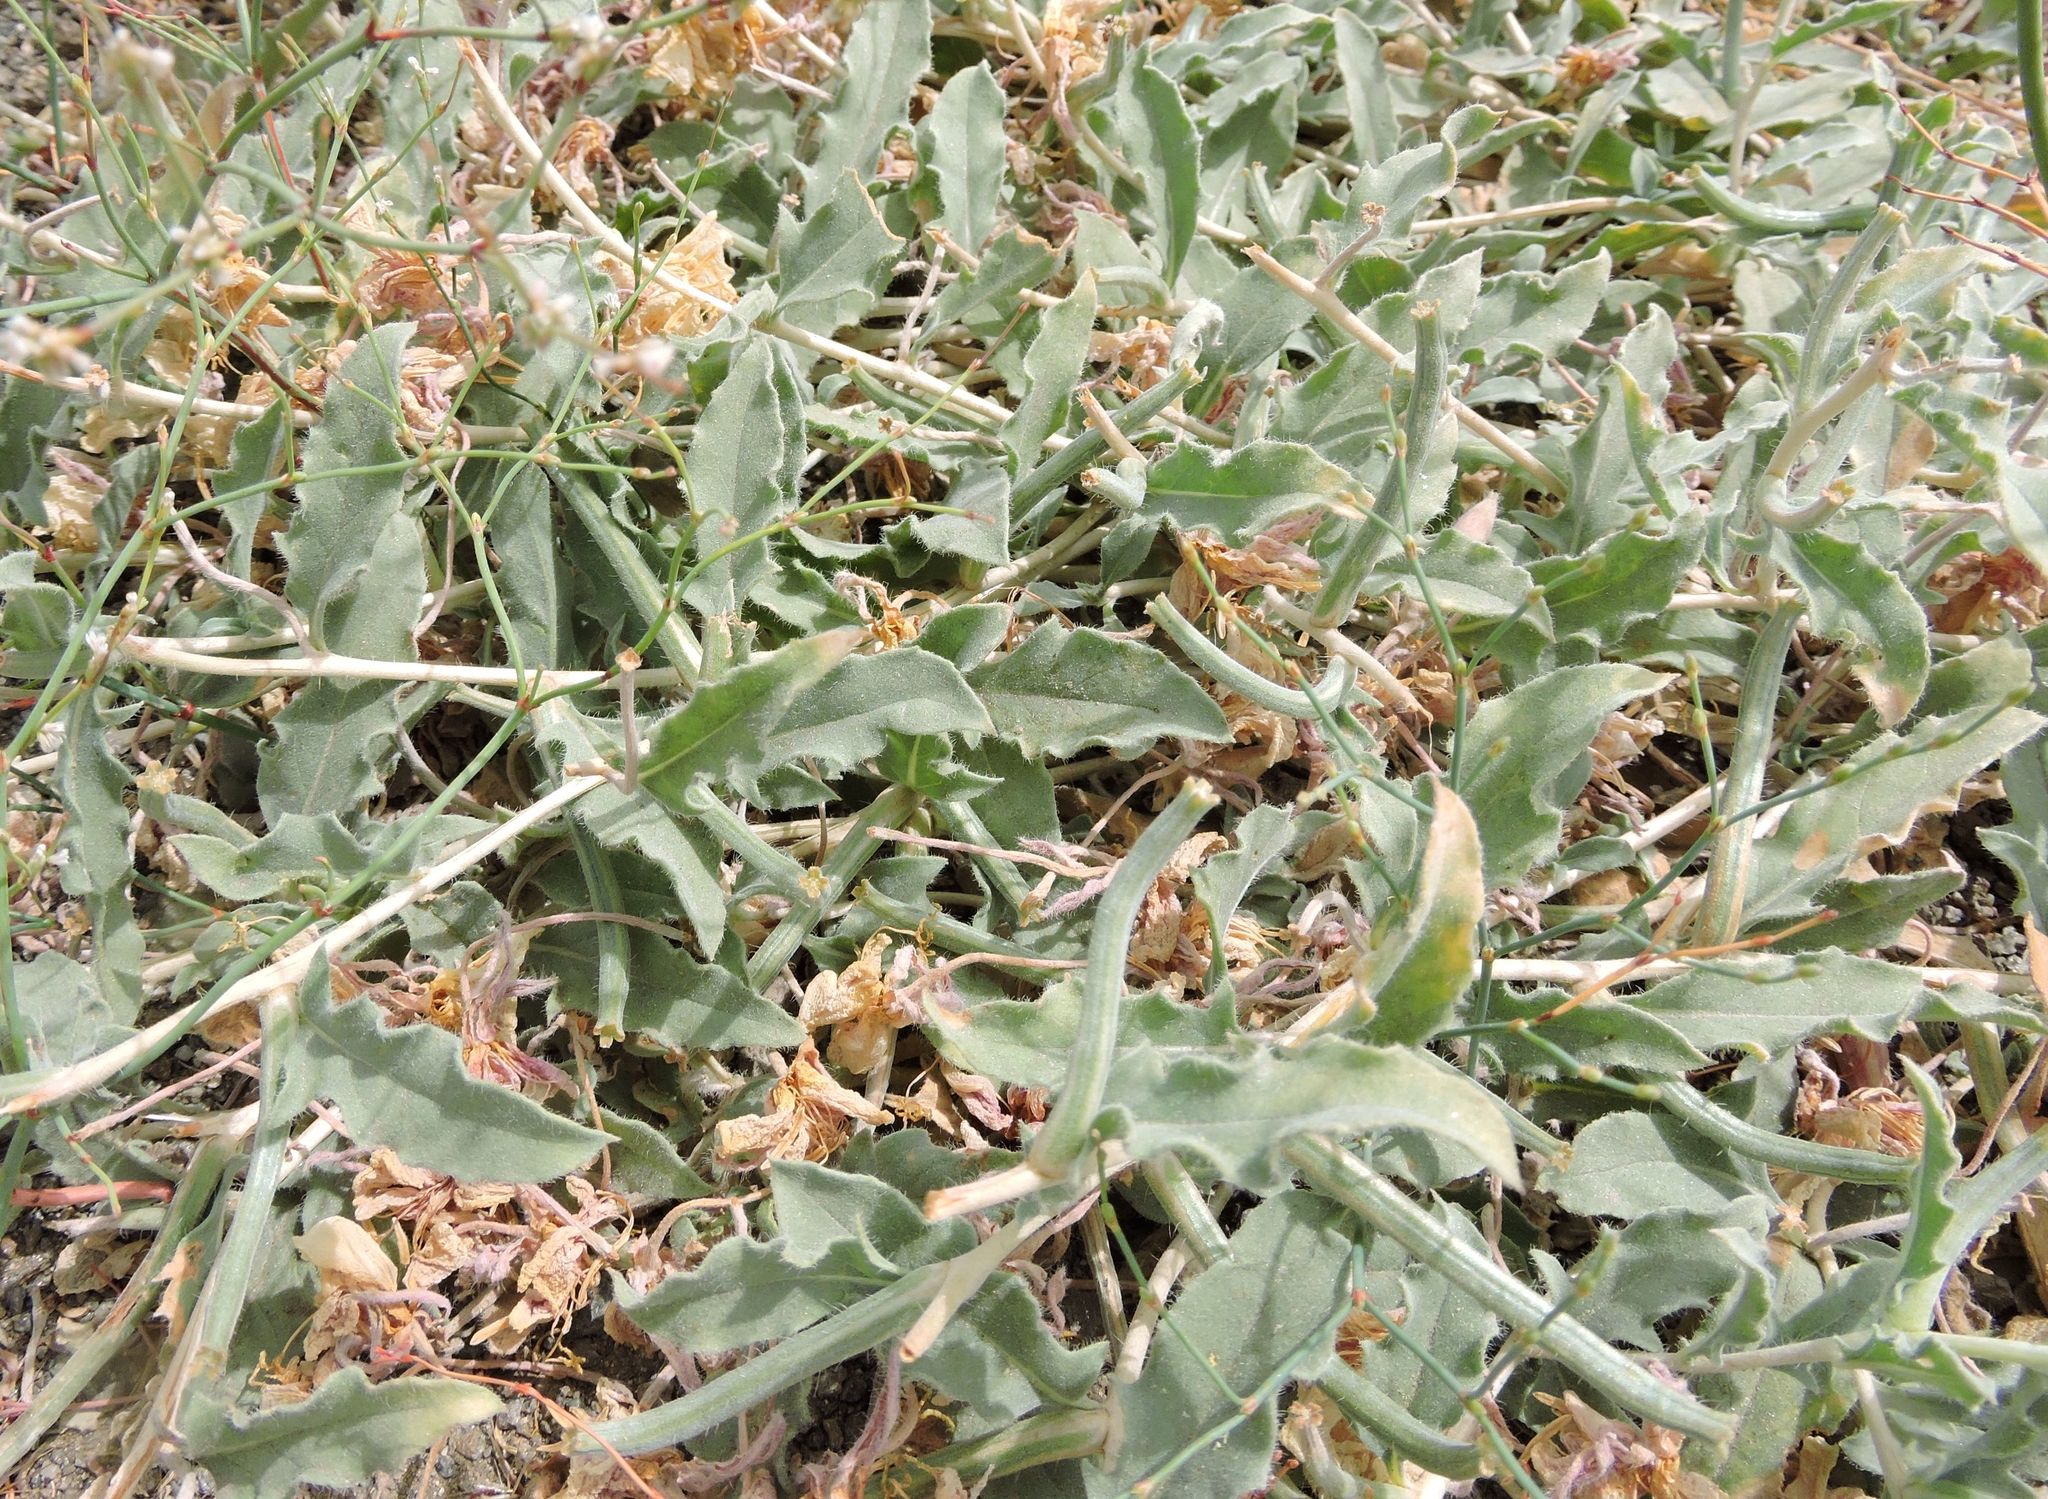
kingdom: Plantae
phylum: Tracheophyta
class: Magnoliopsida
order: Myrtales
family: Onagraceae
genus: Oenothera
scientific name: Oenothera californica
